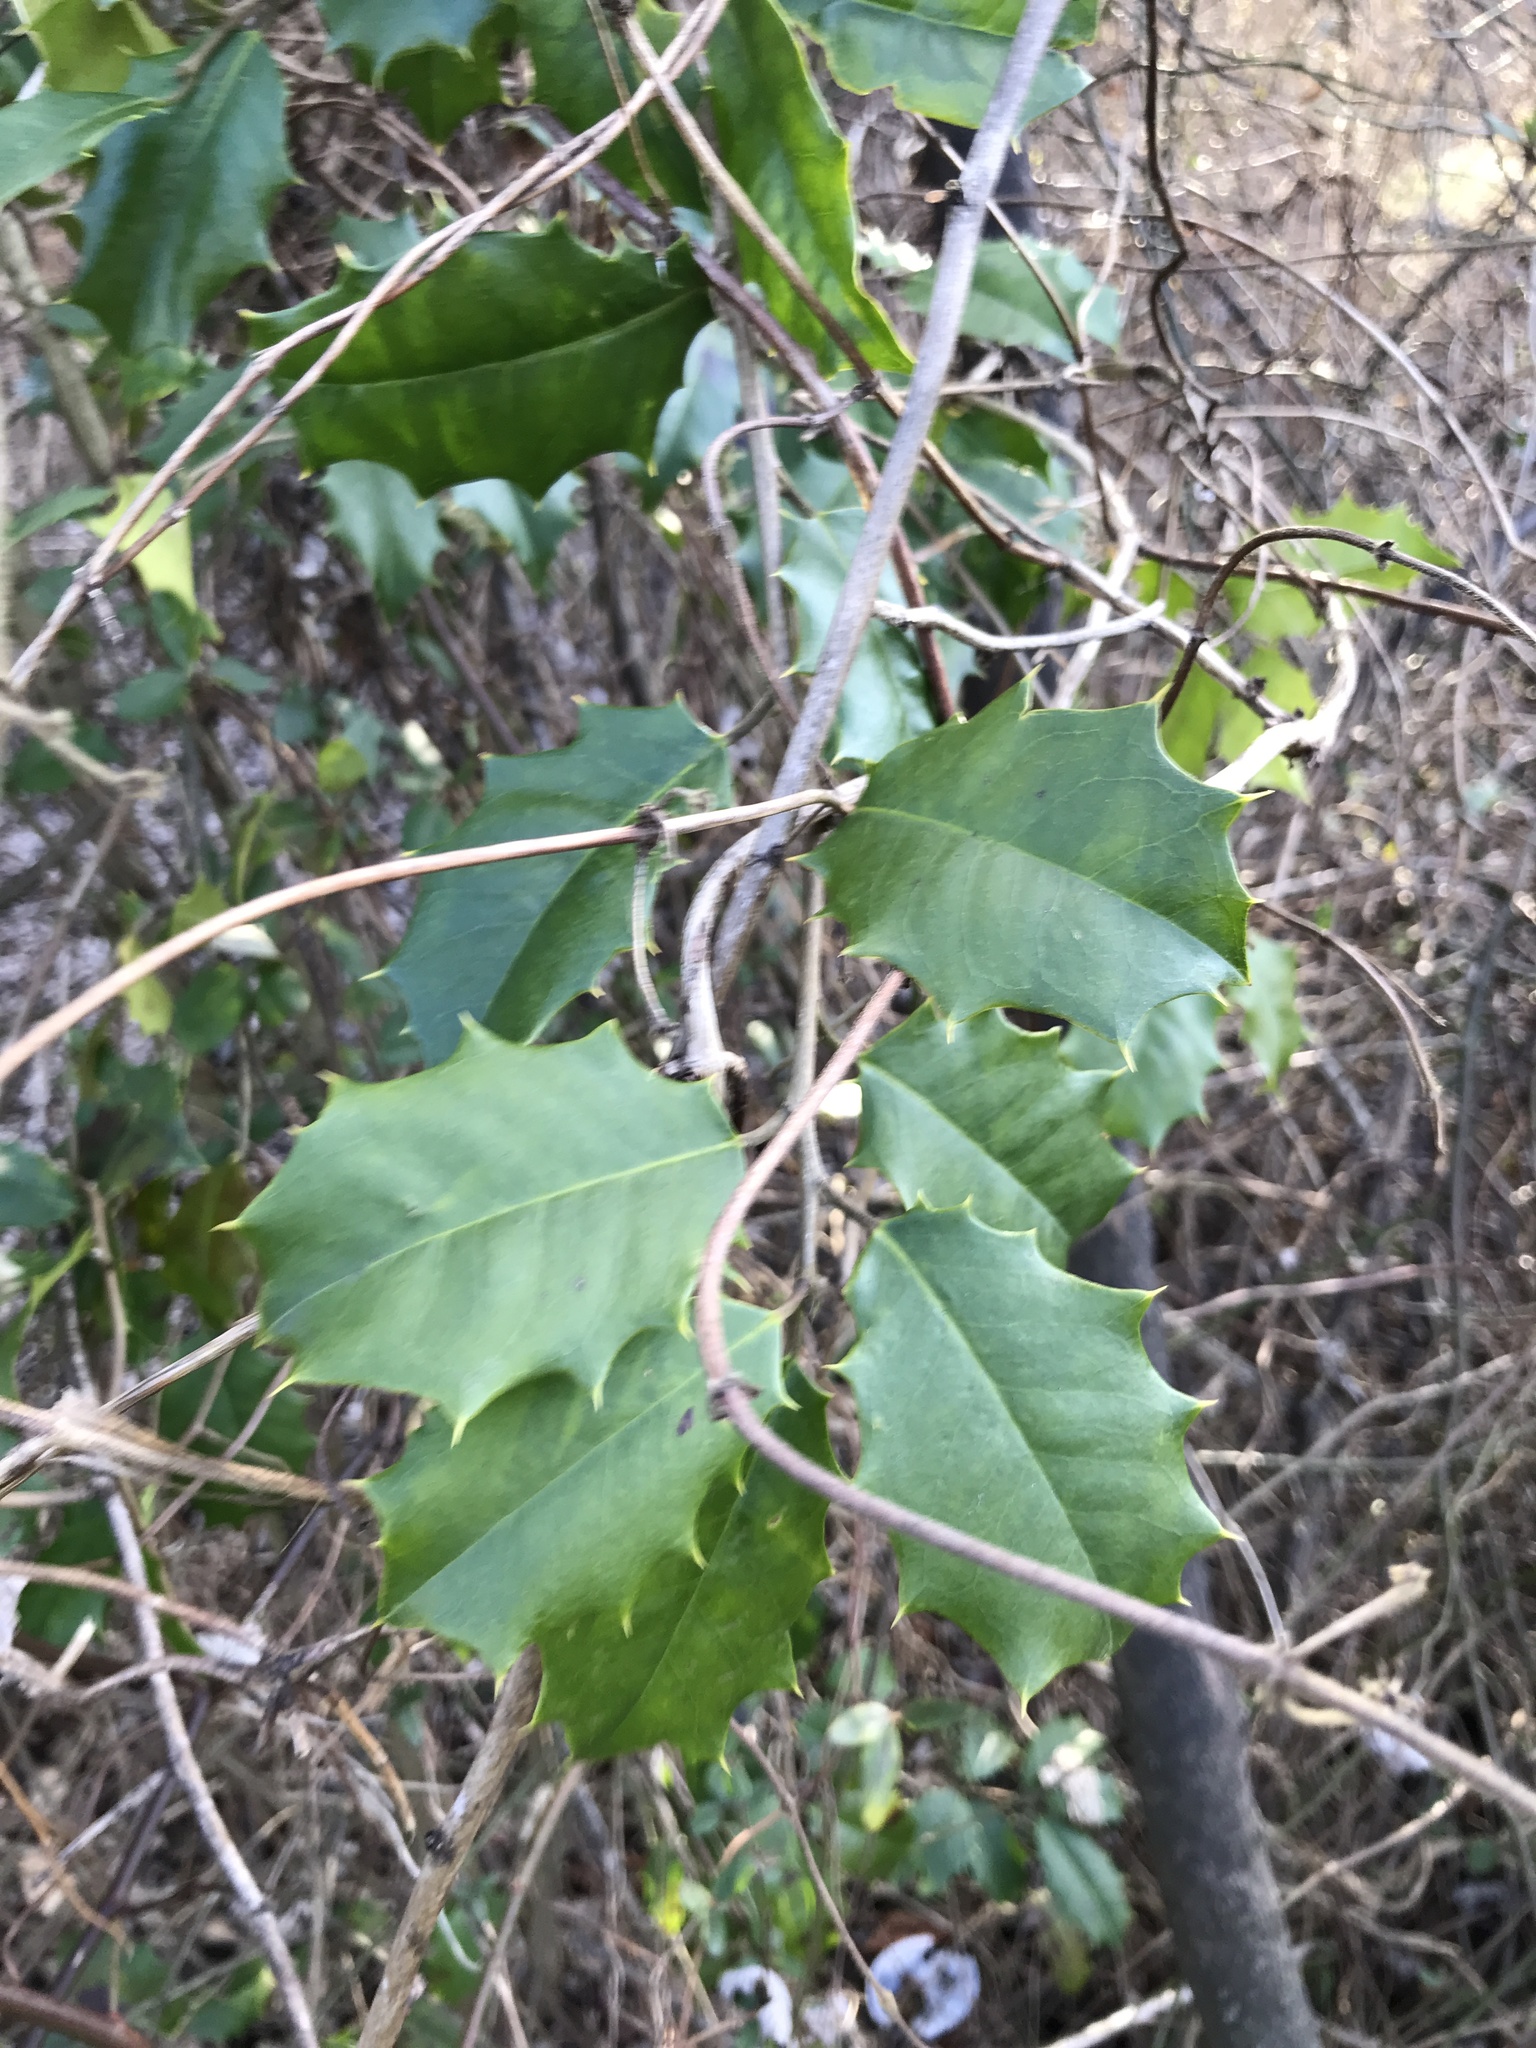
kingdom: Plantae
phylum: Tracheophyta
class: Magnoliopsida
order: Aquifoliales
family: Aquifoliaceae
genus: Ilex
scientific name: Ilex opaca
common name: American holly
